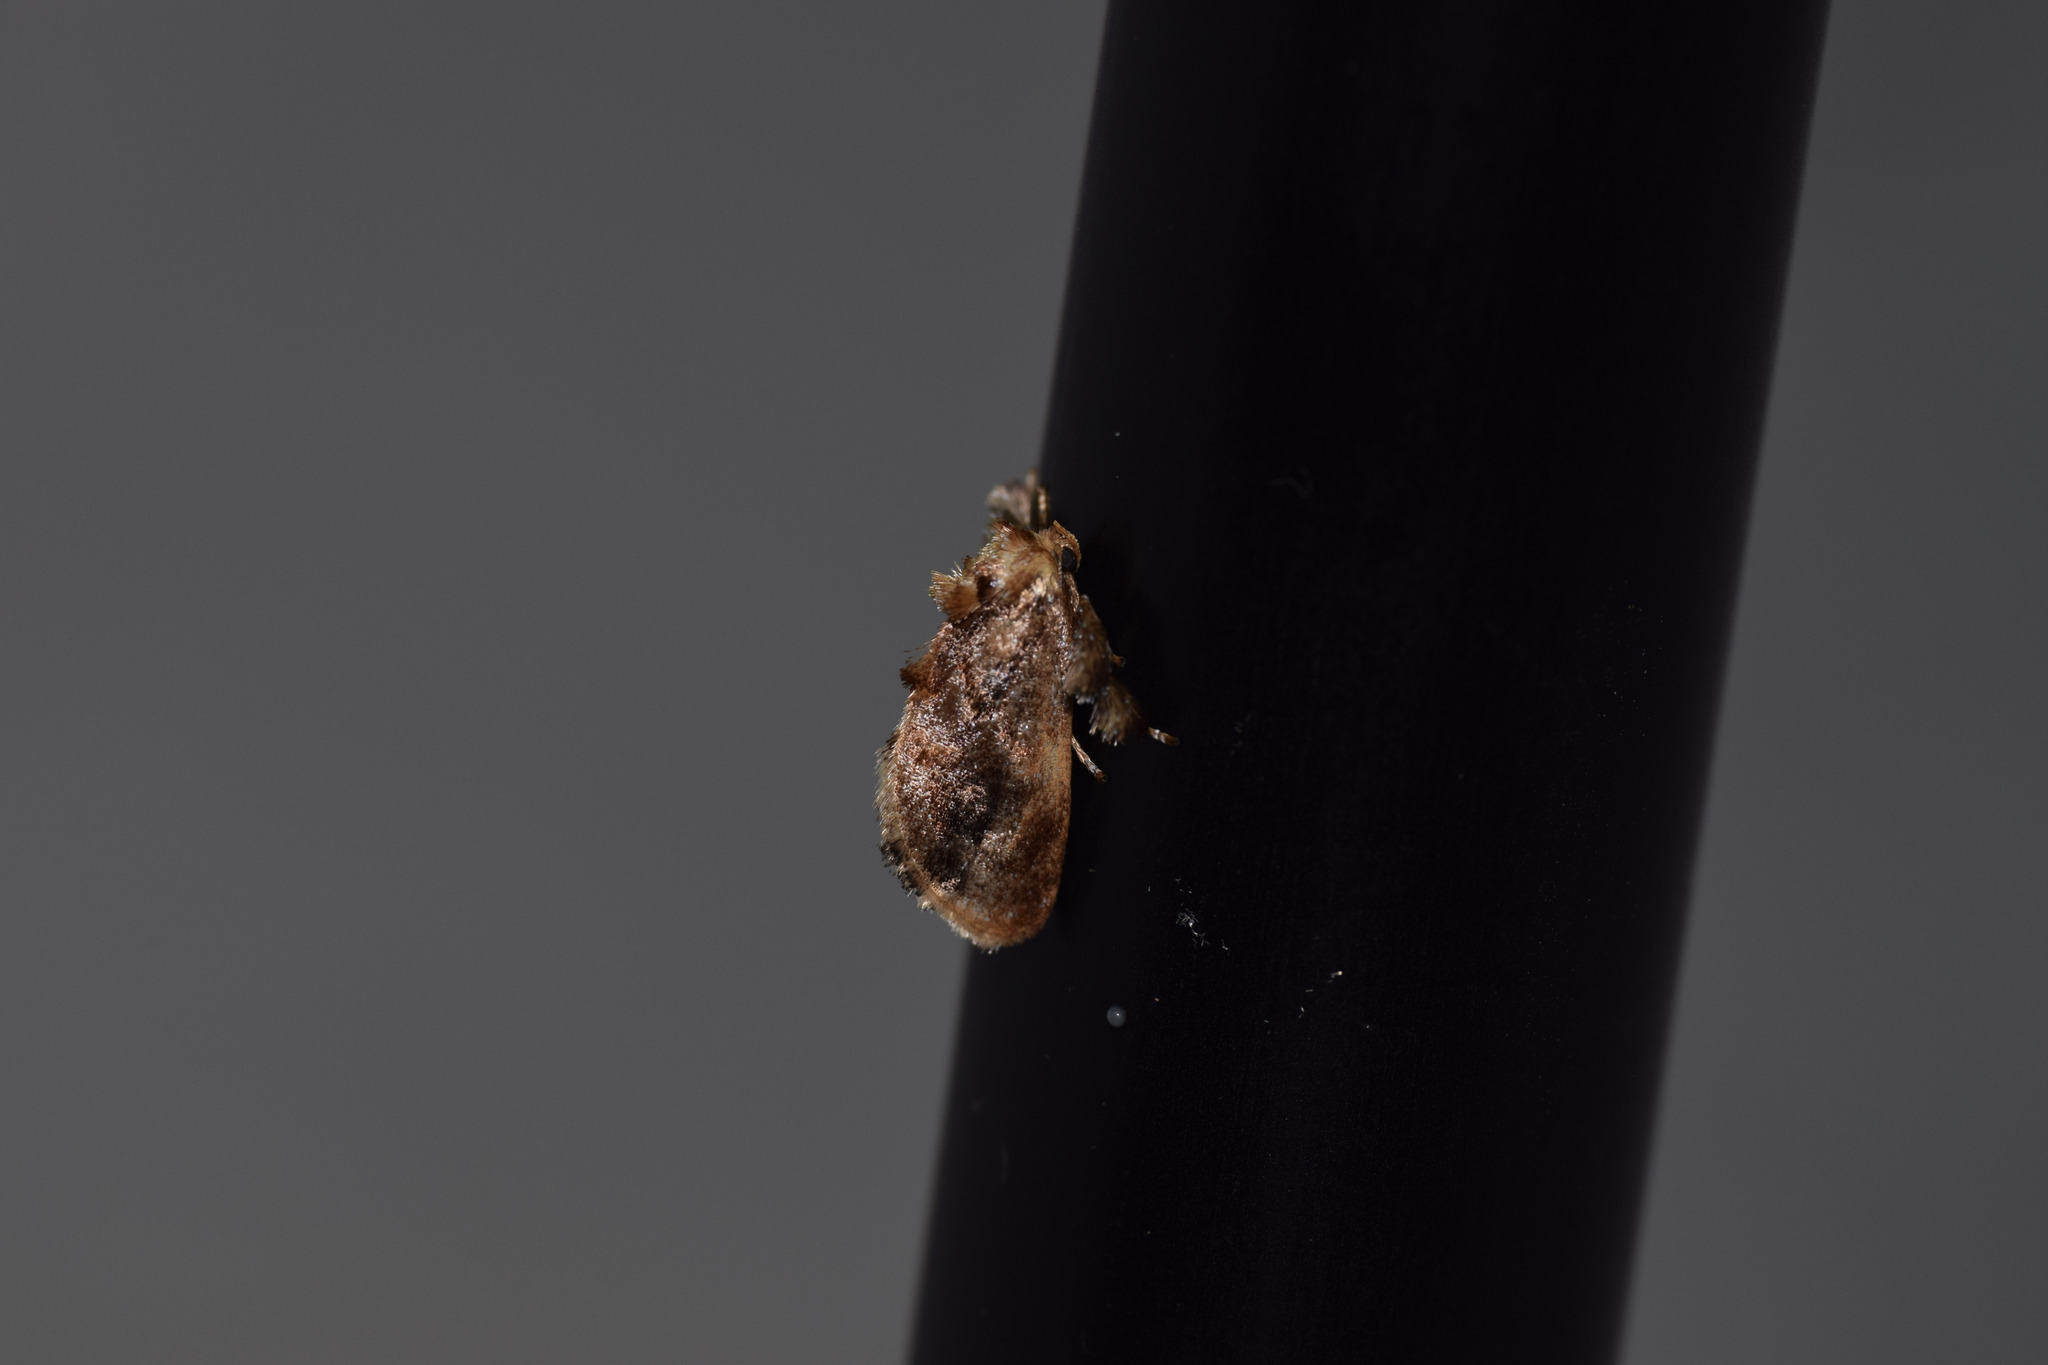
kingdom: Animalia
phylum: Arthropoda
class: Insecta
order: Lepidoptera
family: Limacodidae
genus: Isochaetes
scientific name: Isochaetes beutenmuelleri
